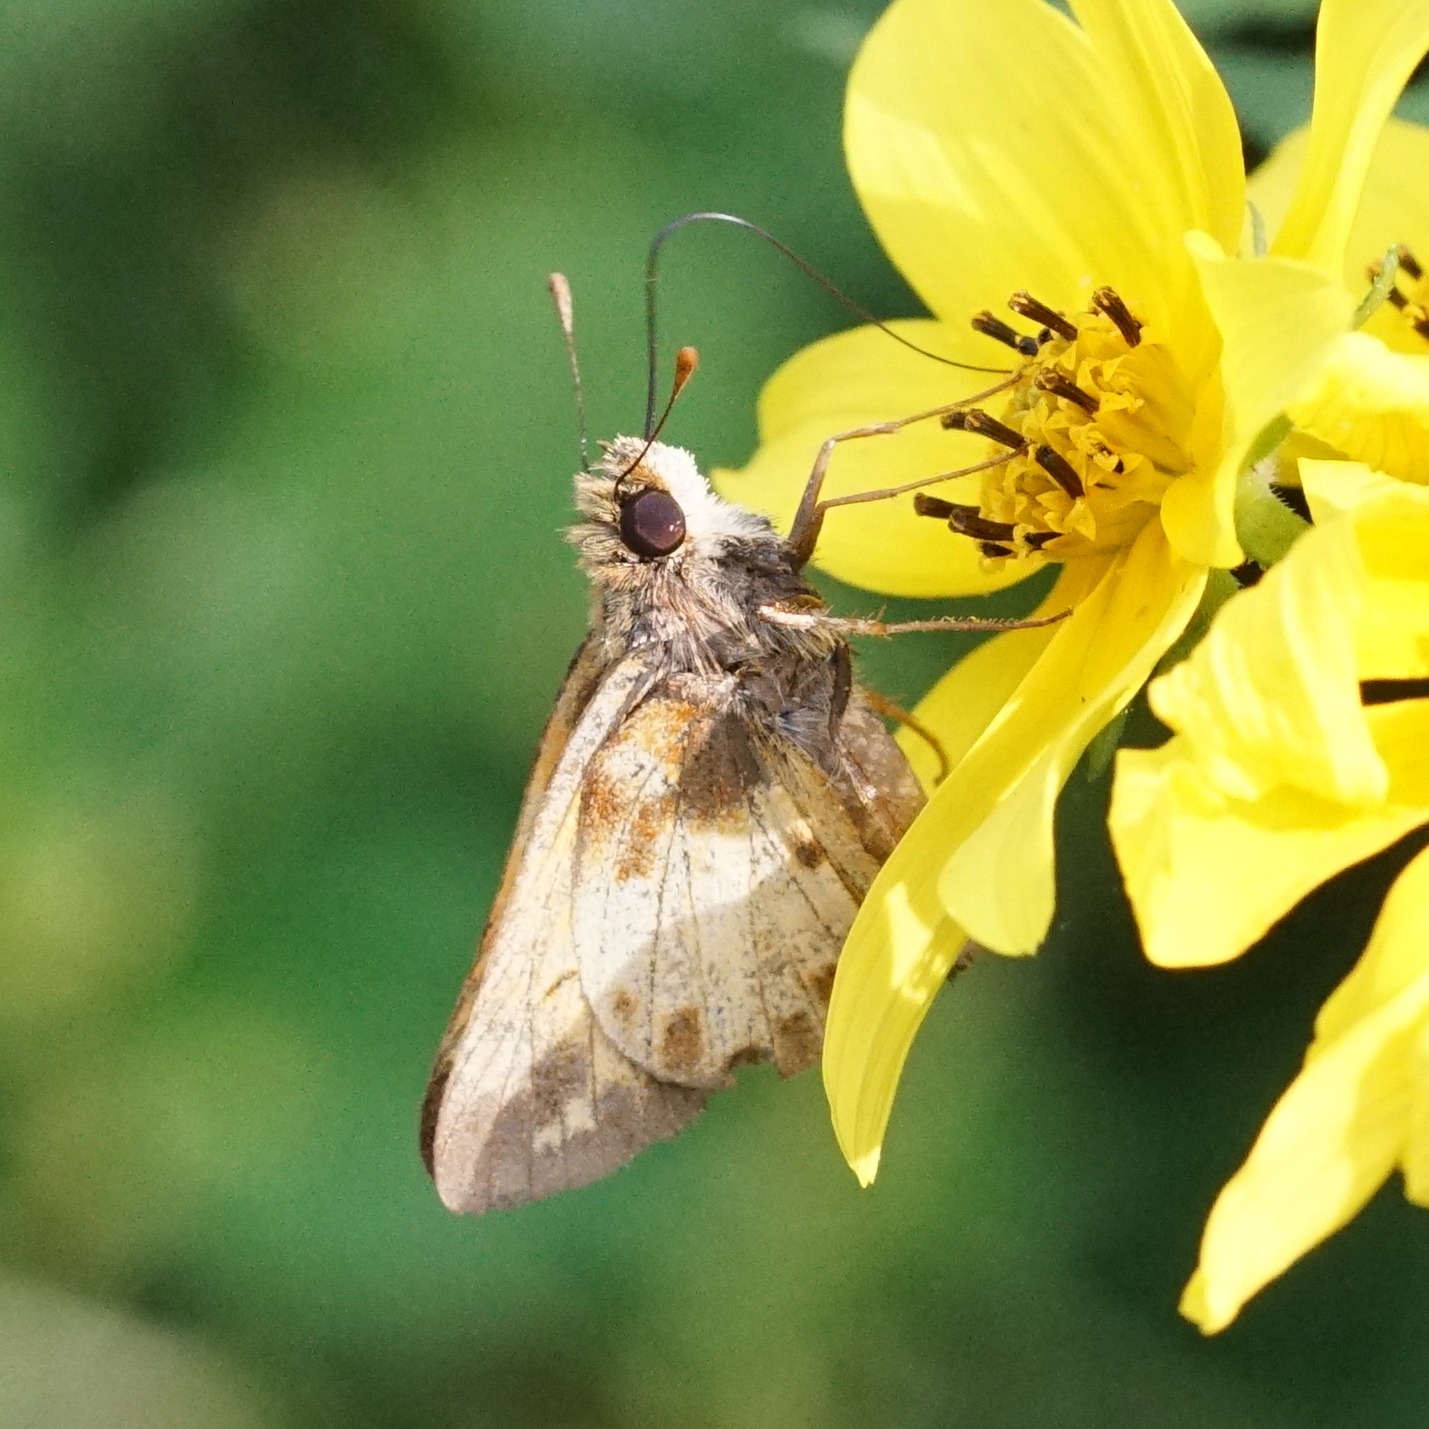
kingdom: Animalia
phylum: Arthropoda
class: Insecta
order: Lepidoptera
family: Hesperiidae
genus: Lon
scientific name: Lon zabulon
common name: Zabulon skipper
